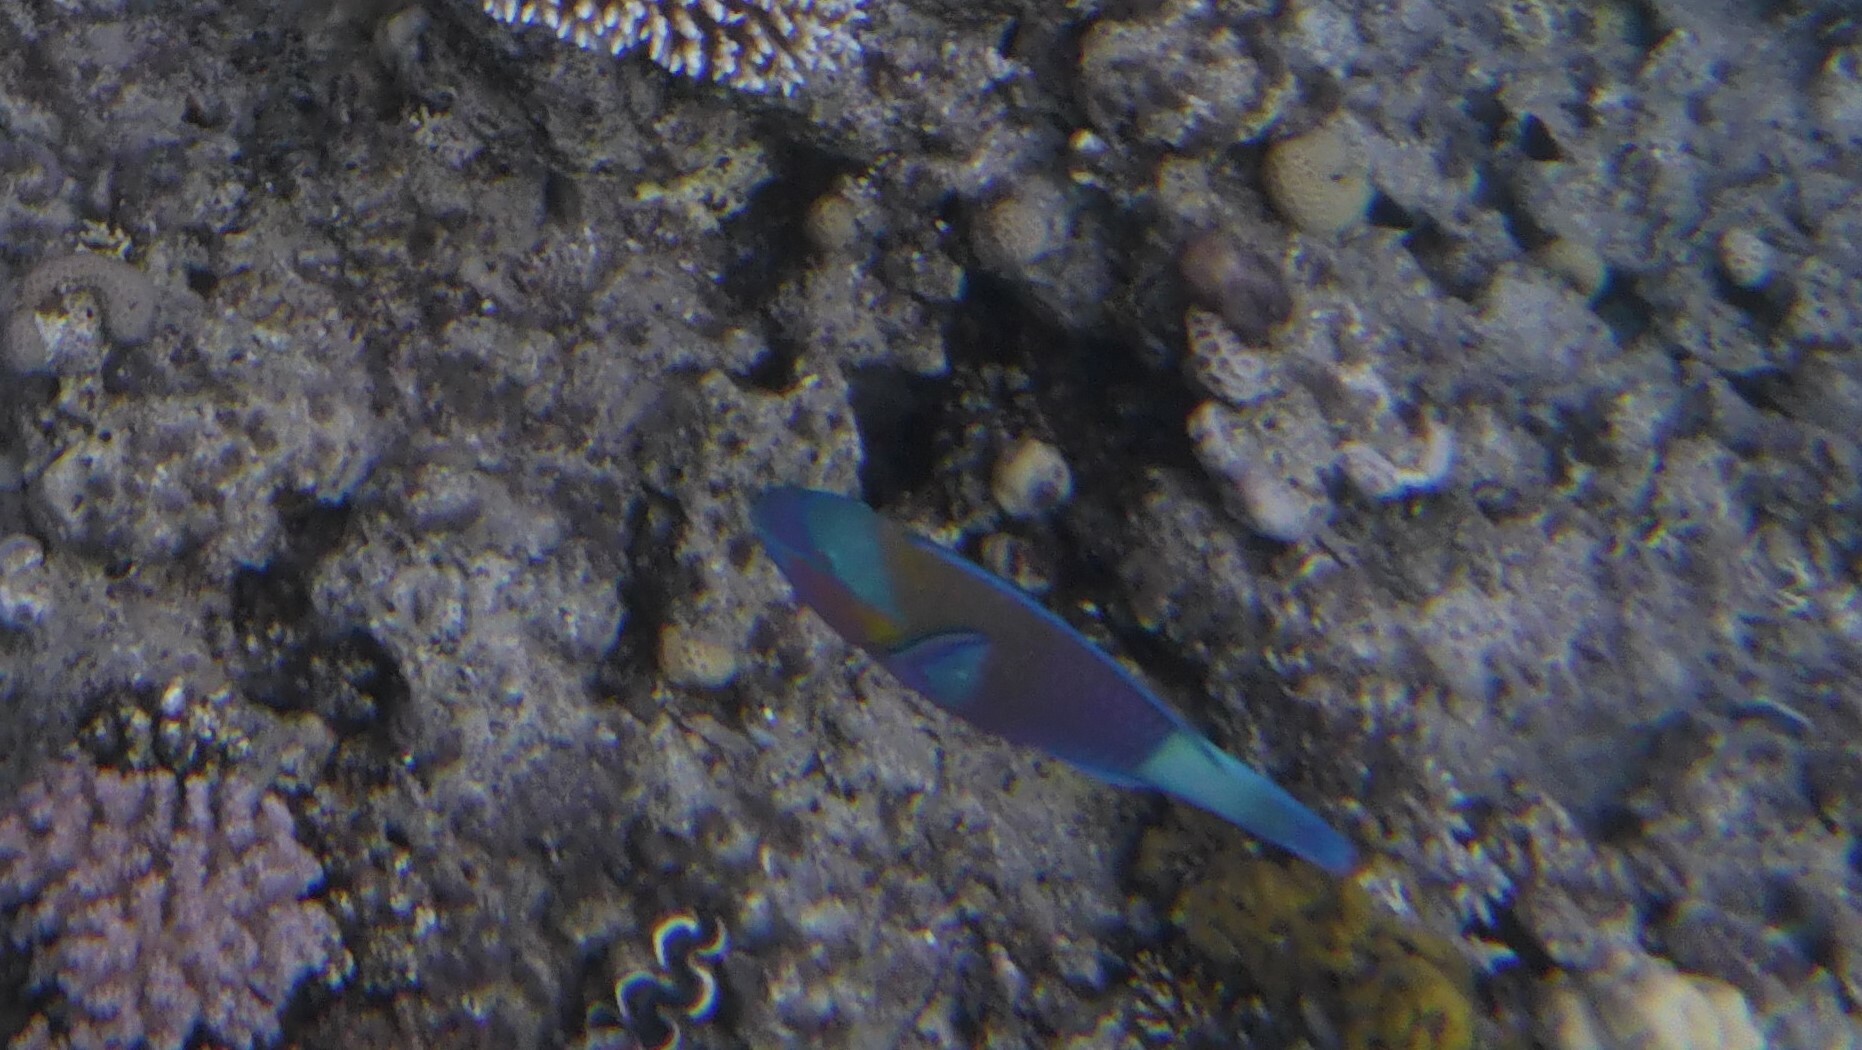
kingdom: Animalia
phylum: Chordata
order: Perciformes
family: Scaridae
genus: Chlorurus
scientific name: Chlorurus sordidus
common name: Bullethead parrotfish
